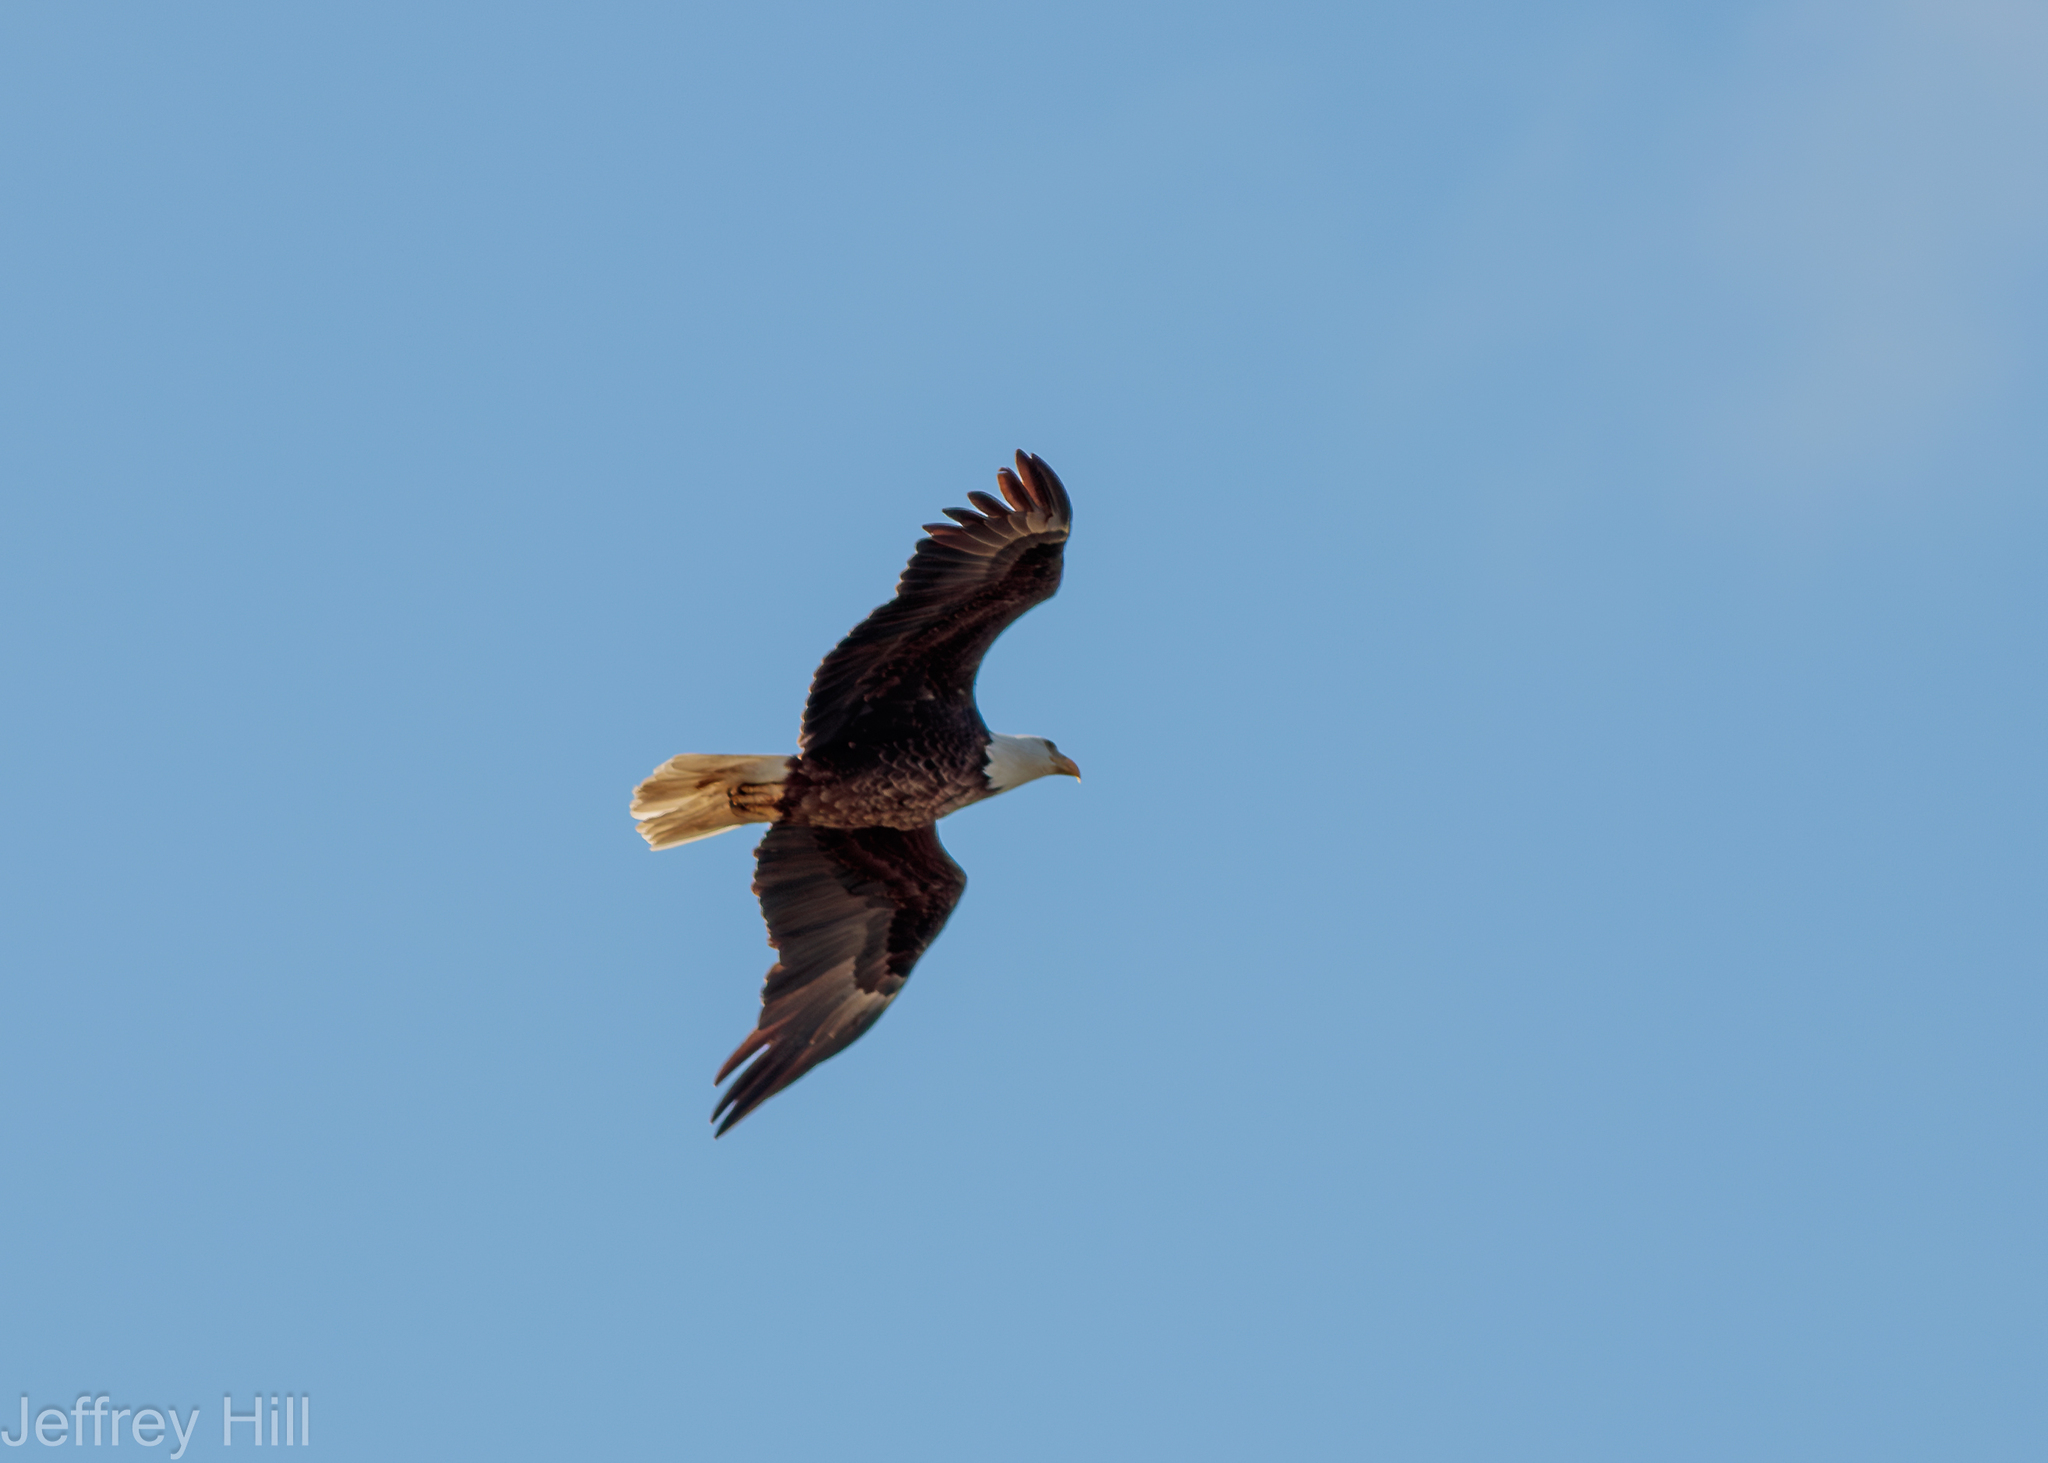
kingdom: Animalia
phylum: Chordata
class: Aves
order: Accipitriformes
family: Accipitridae
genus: Haliaeetus
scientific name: Haliaeetus leucocephalus
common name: Bald eagle
